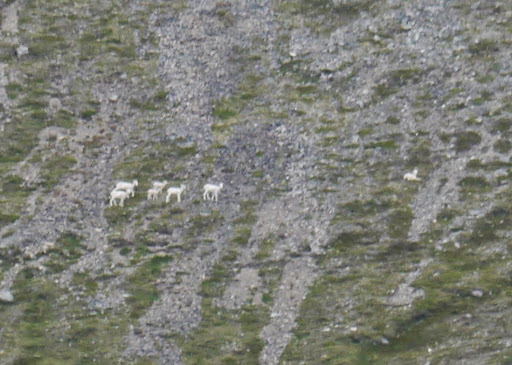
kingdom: Animalia
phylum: Chordata
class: Mammalia
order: Artiodactyla
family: Bovidae
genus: Ovis
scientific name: Ovis dalli
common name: Dall's sheep
